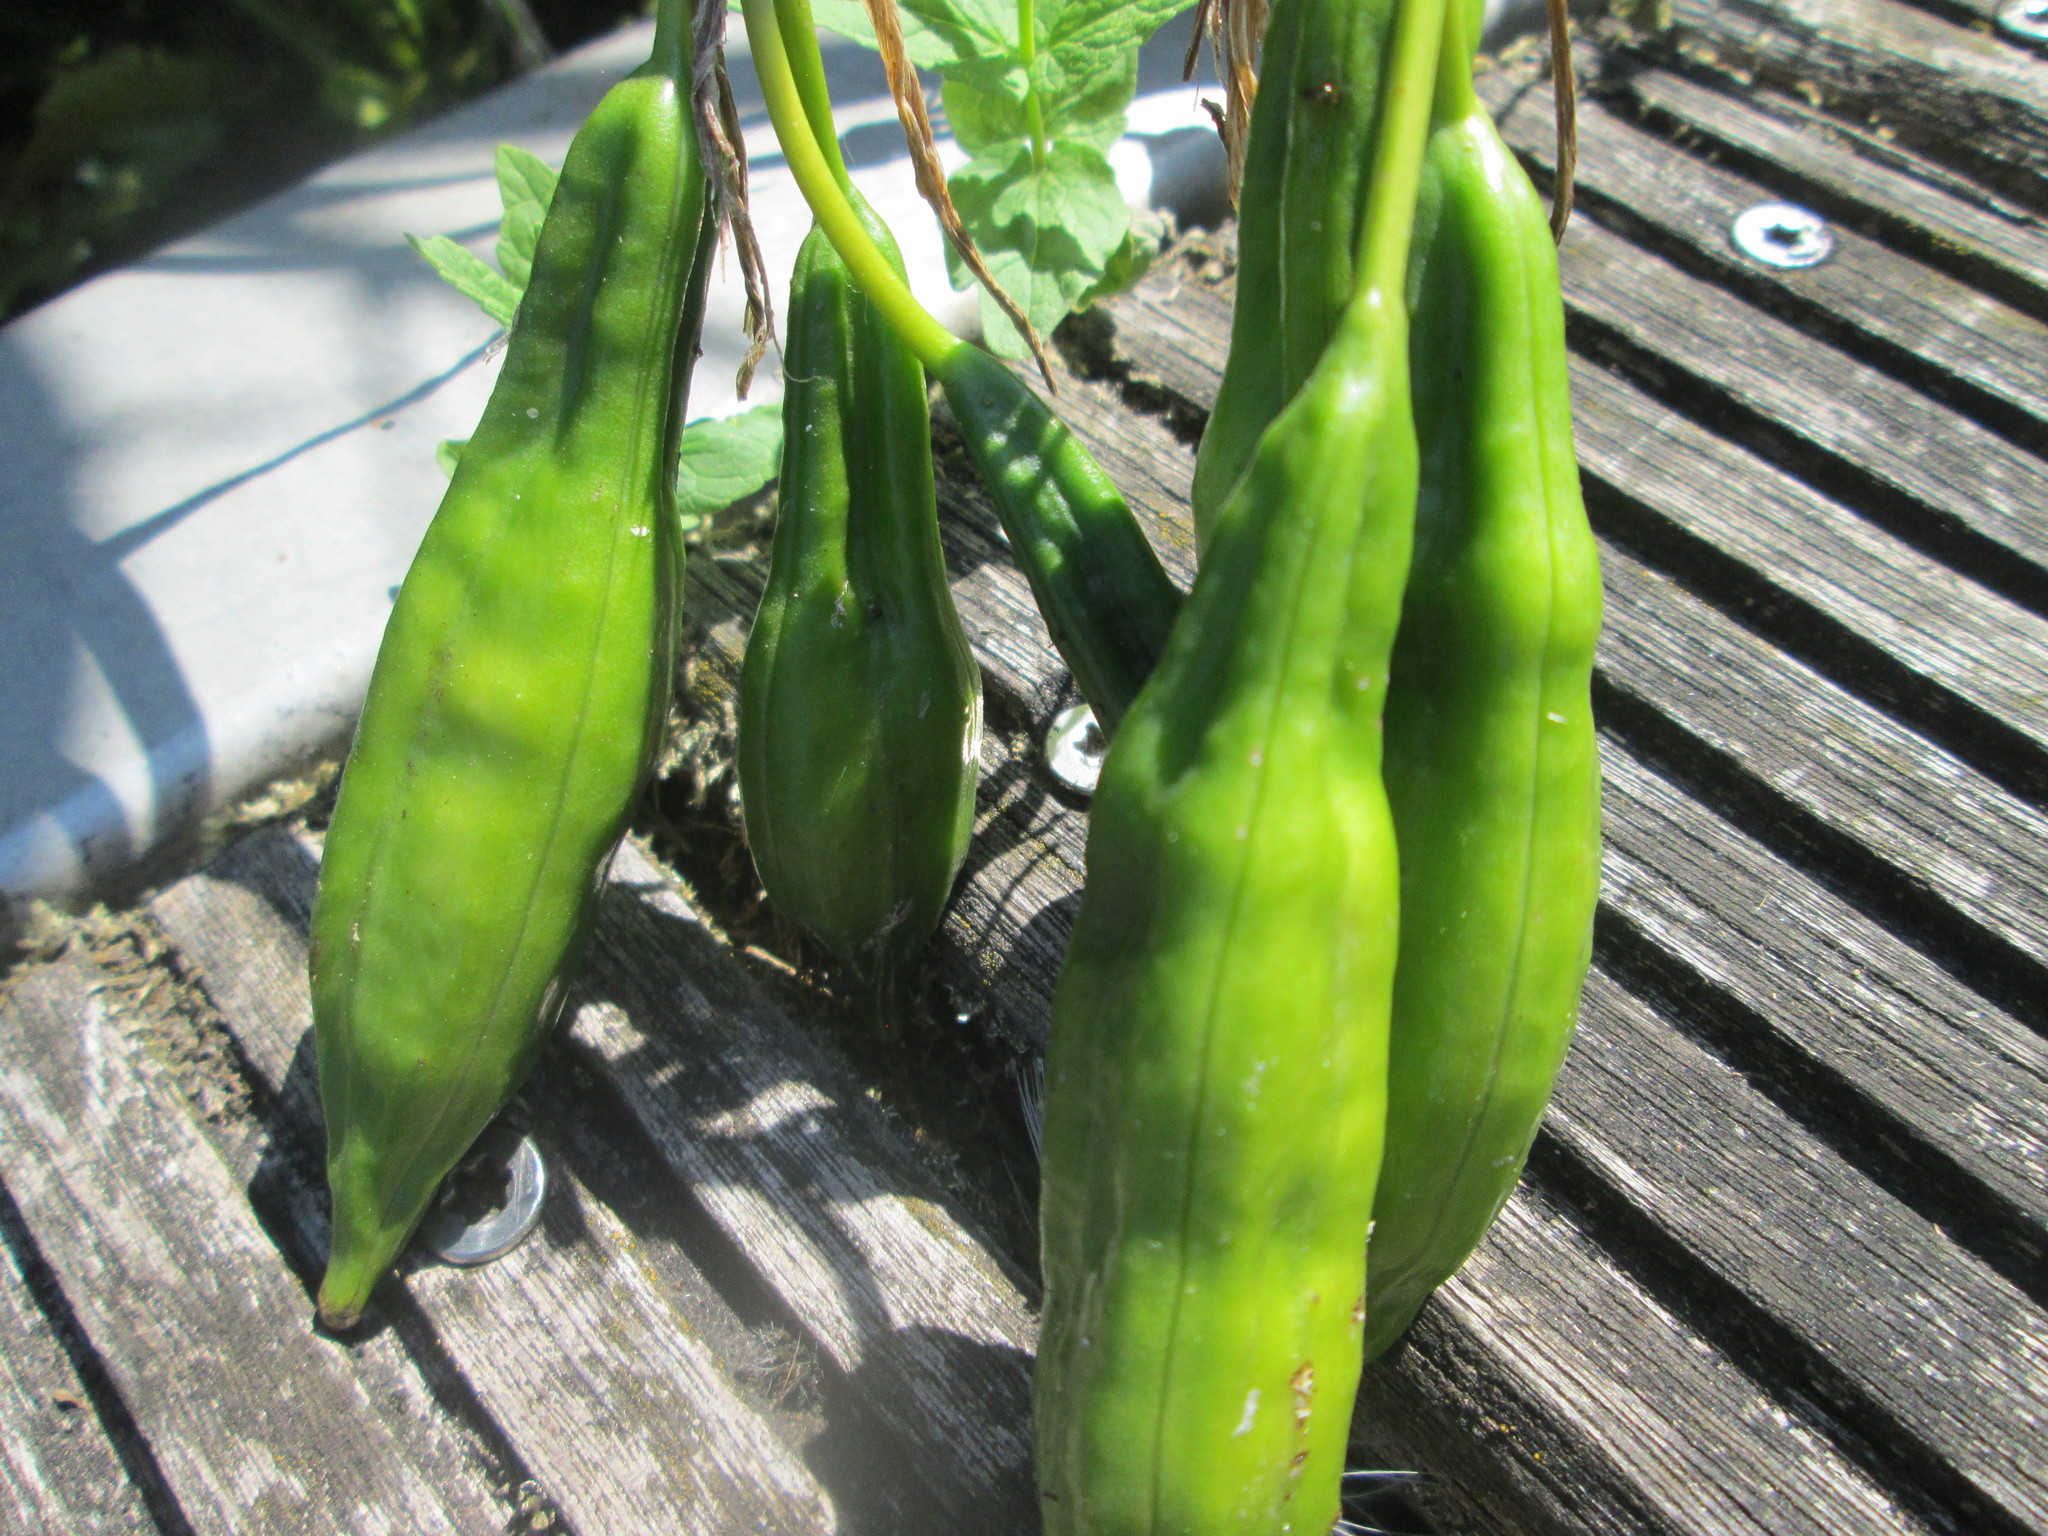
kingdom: Plantae
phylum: Tracheophyta
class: Liliopsida
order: Asparagales
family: Iridaceae
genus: Iris
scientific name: Iris pseudacorus
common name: Yellow flag
